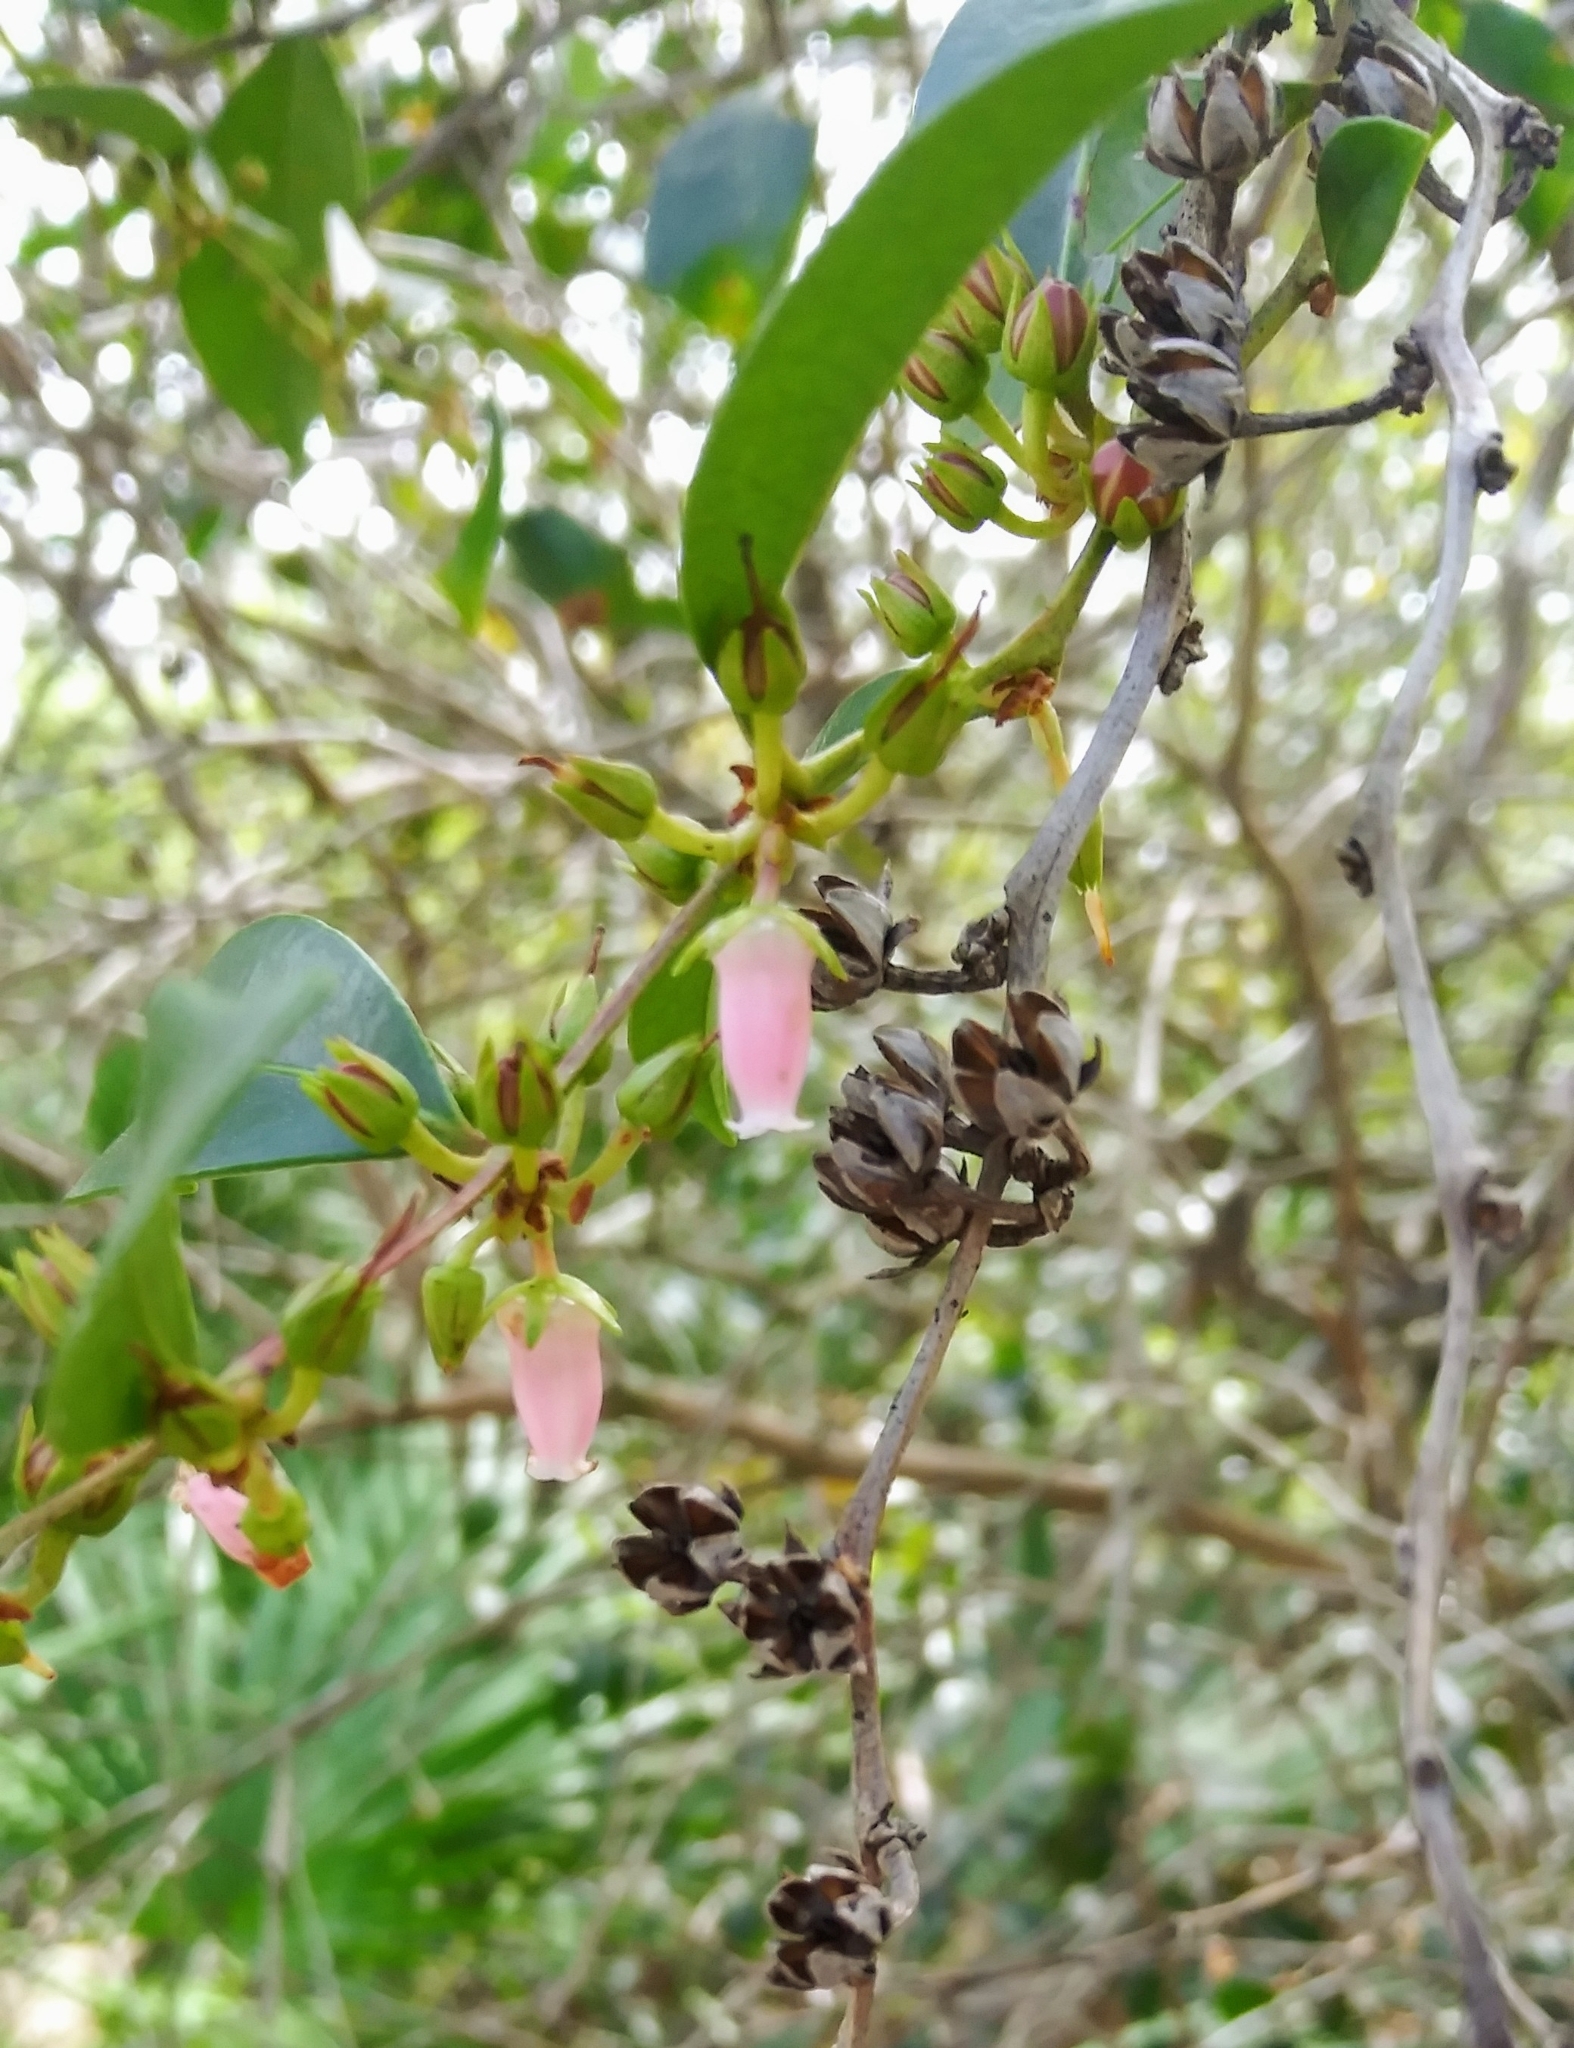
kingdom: Plantae
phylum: Tracheophyta
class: Magnoliopsida
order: Ericales
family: Ericaceae
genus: Lyonia
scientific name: Lyonia lucida
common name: Fetterbush
